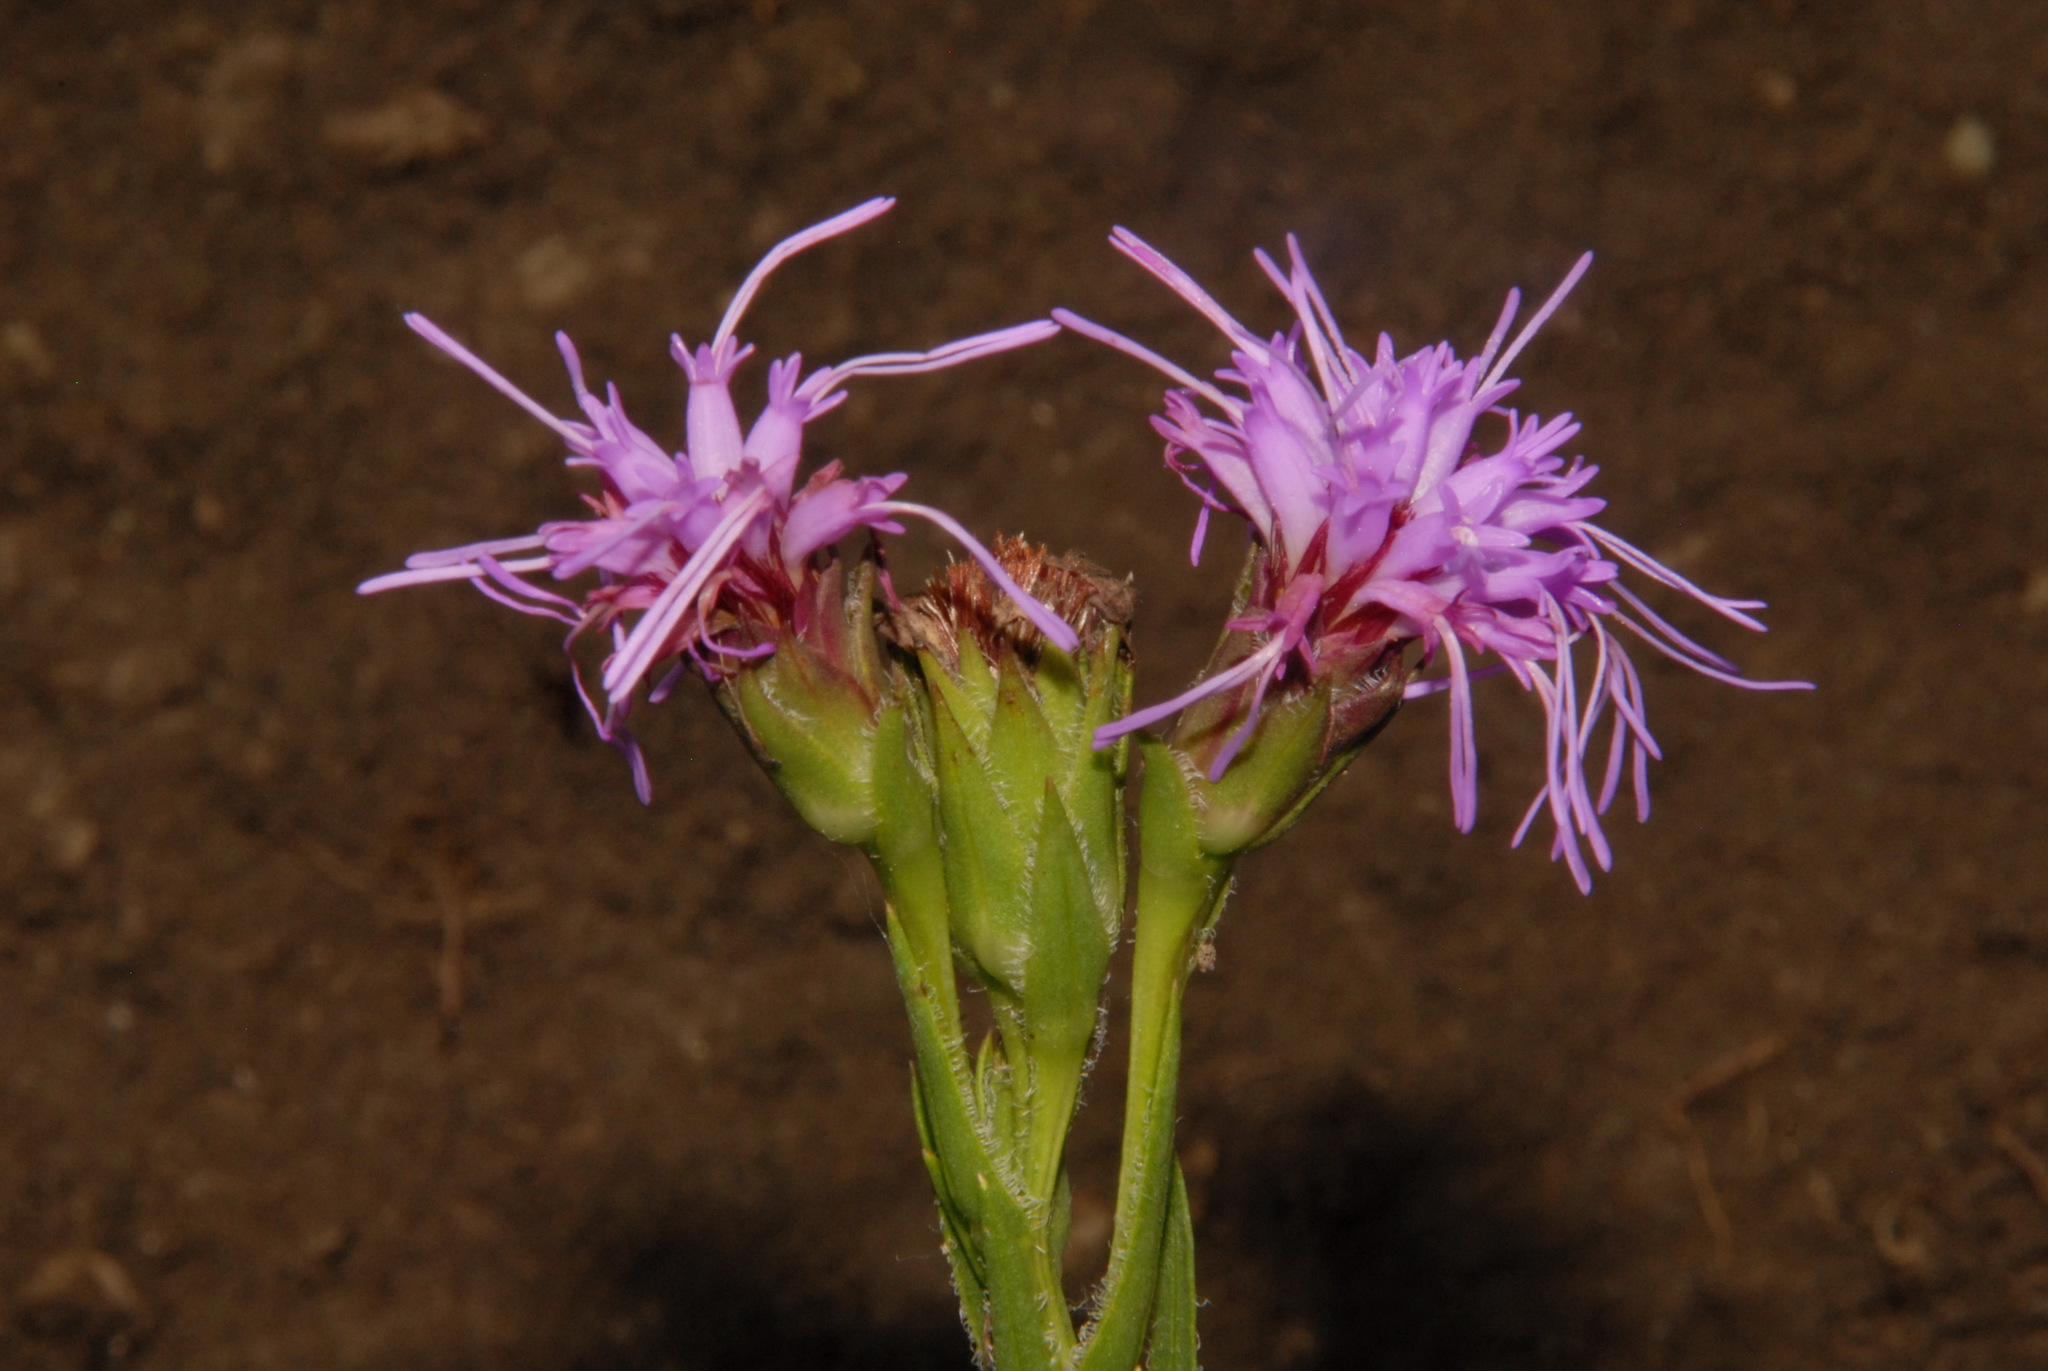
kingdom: Plantae
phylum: Tracheophyta
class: Magnoliopsida
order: Asterales
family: Asteraceae
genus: Liatris
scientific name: Liatris oligocephala
